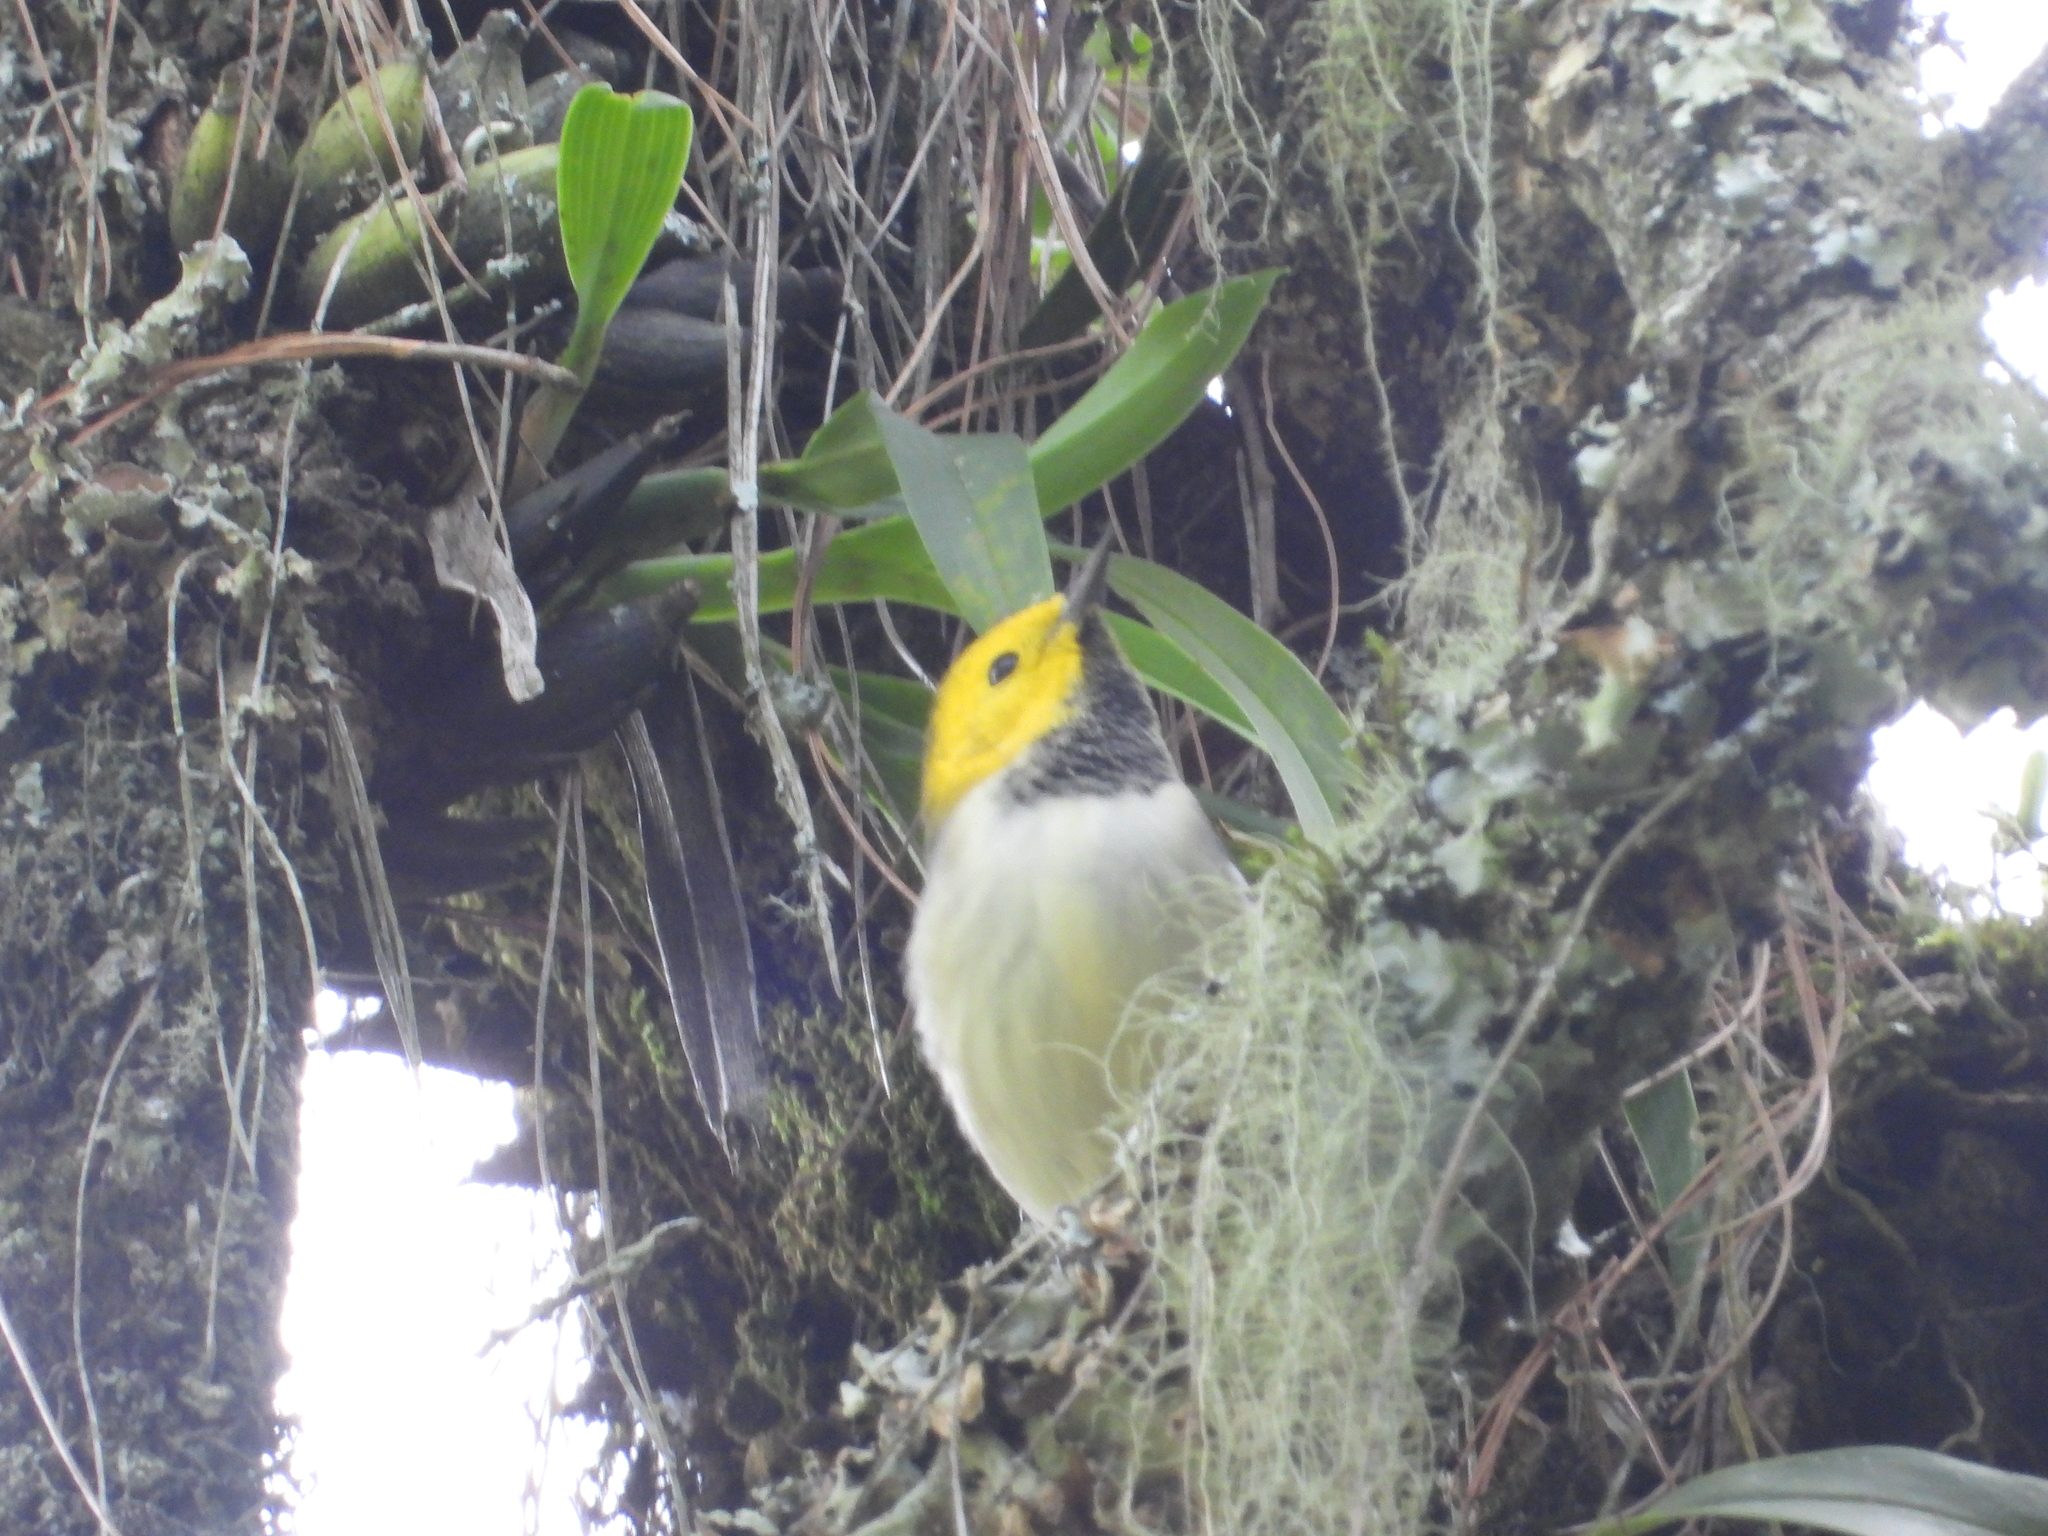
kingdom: Animalia
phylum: Chordata
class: Aves
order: Passeriformes
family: Parulidae
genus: Setophaga
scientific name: Setophaga occidentalis
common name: Hermit warbler
